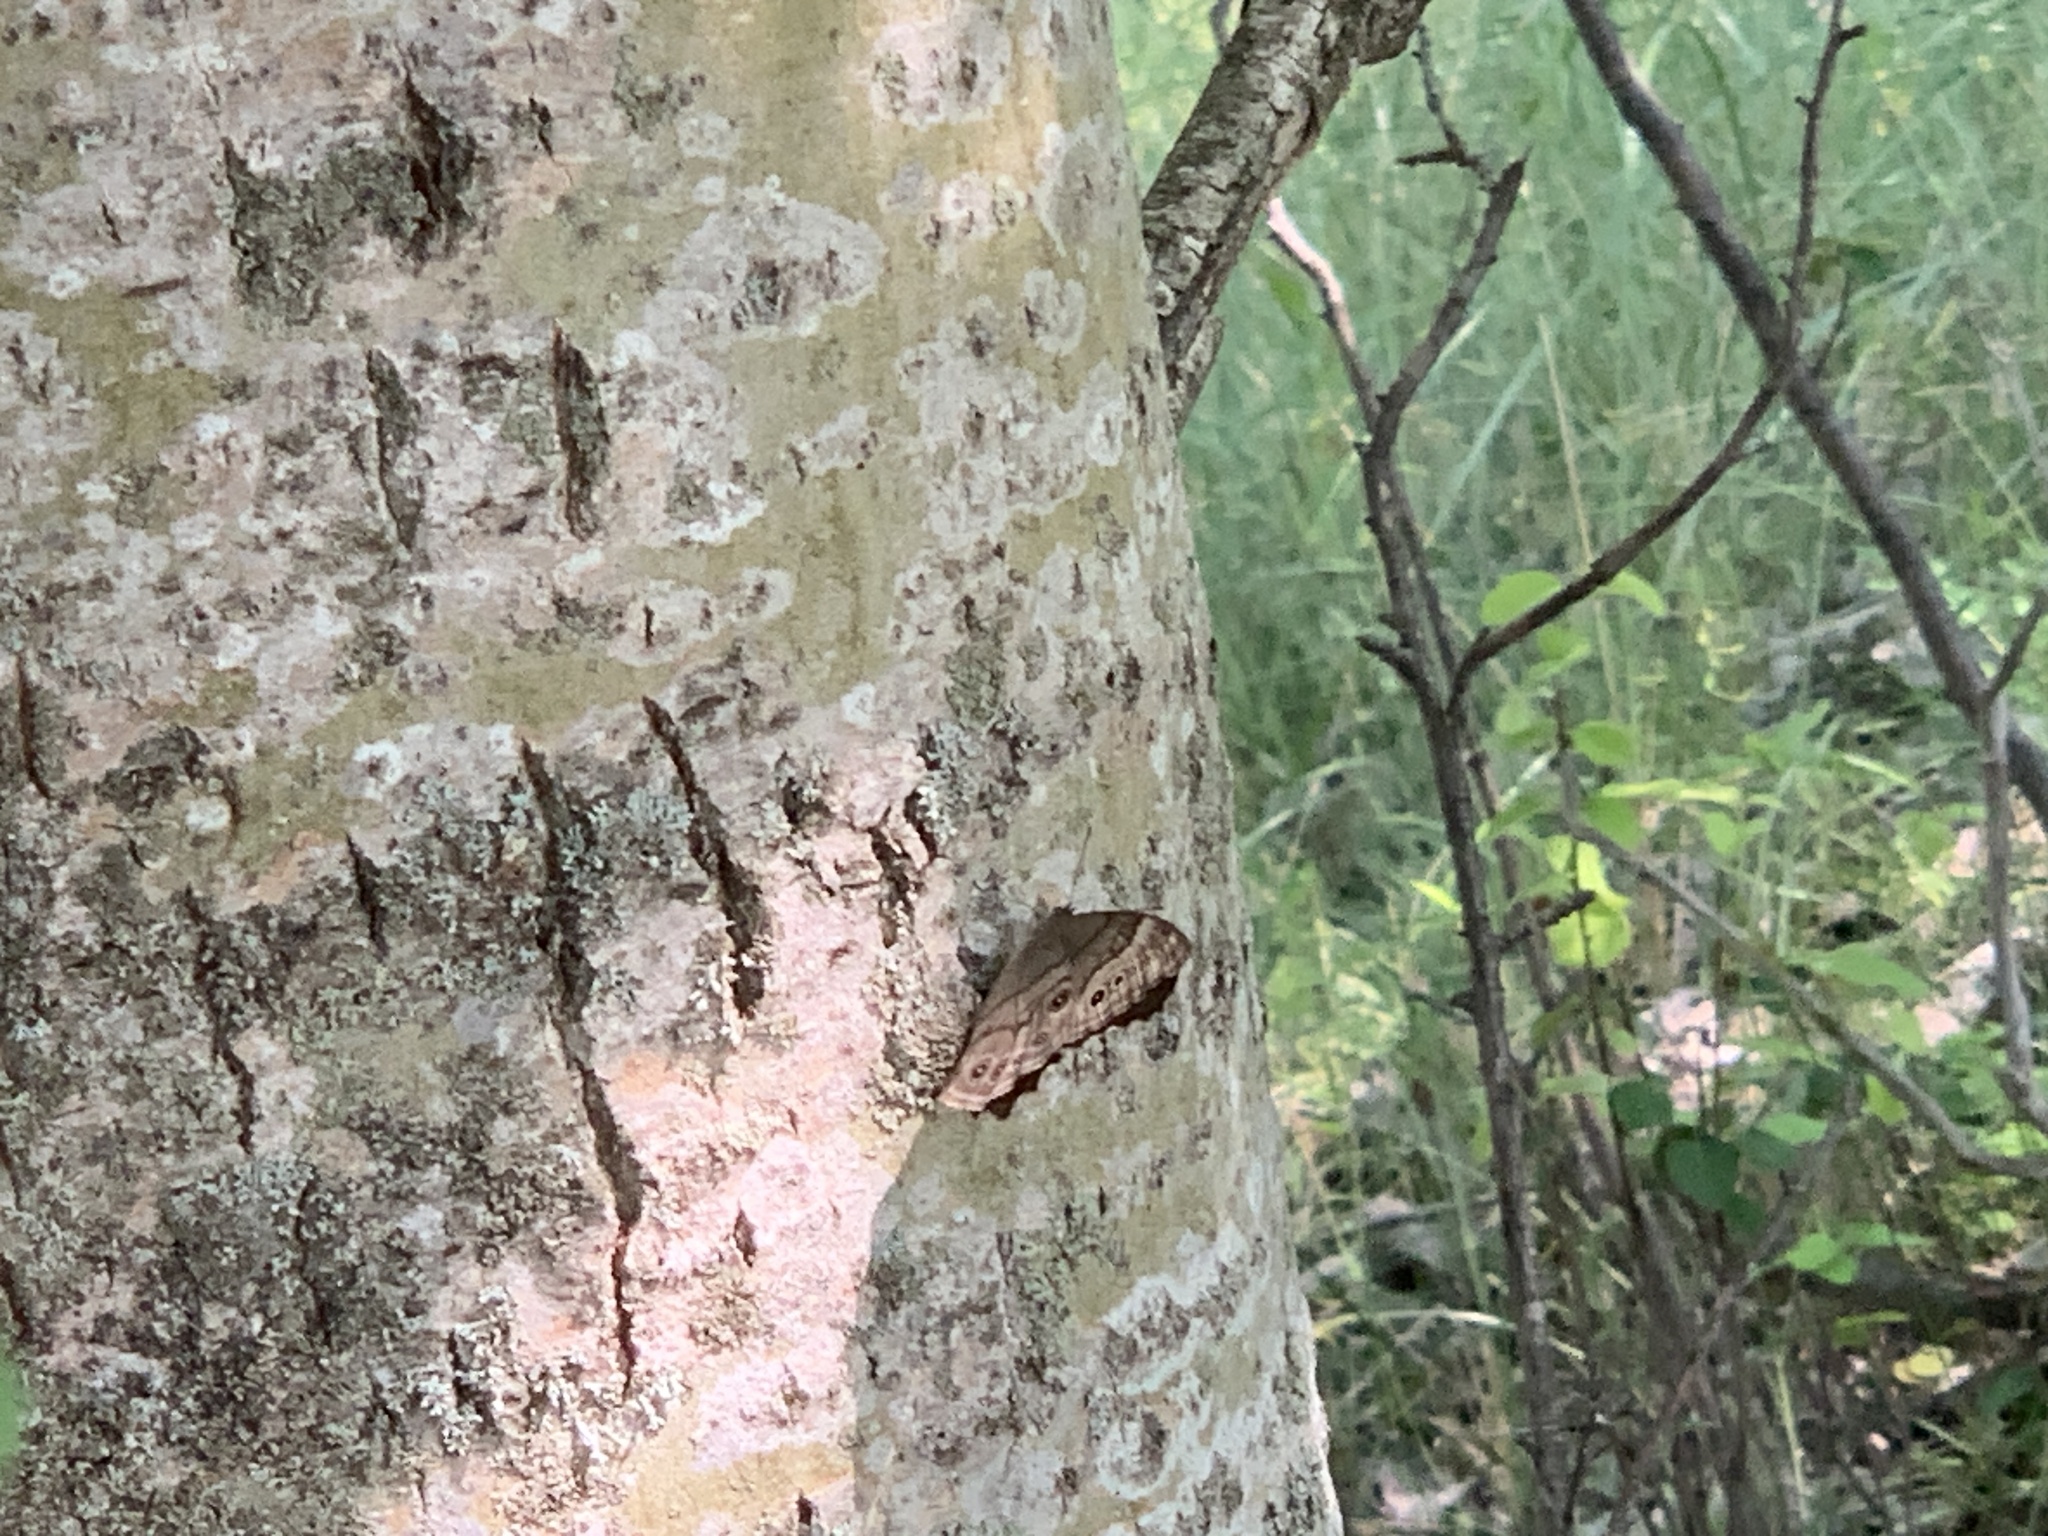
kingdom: Animalia
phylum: Arthropoda
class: Insecta
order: Lepidoptera
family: Nymphalidae
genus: Lethe
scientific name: Lethe anthedon
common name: Northern pearly-eye
